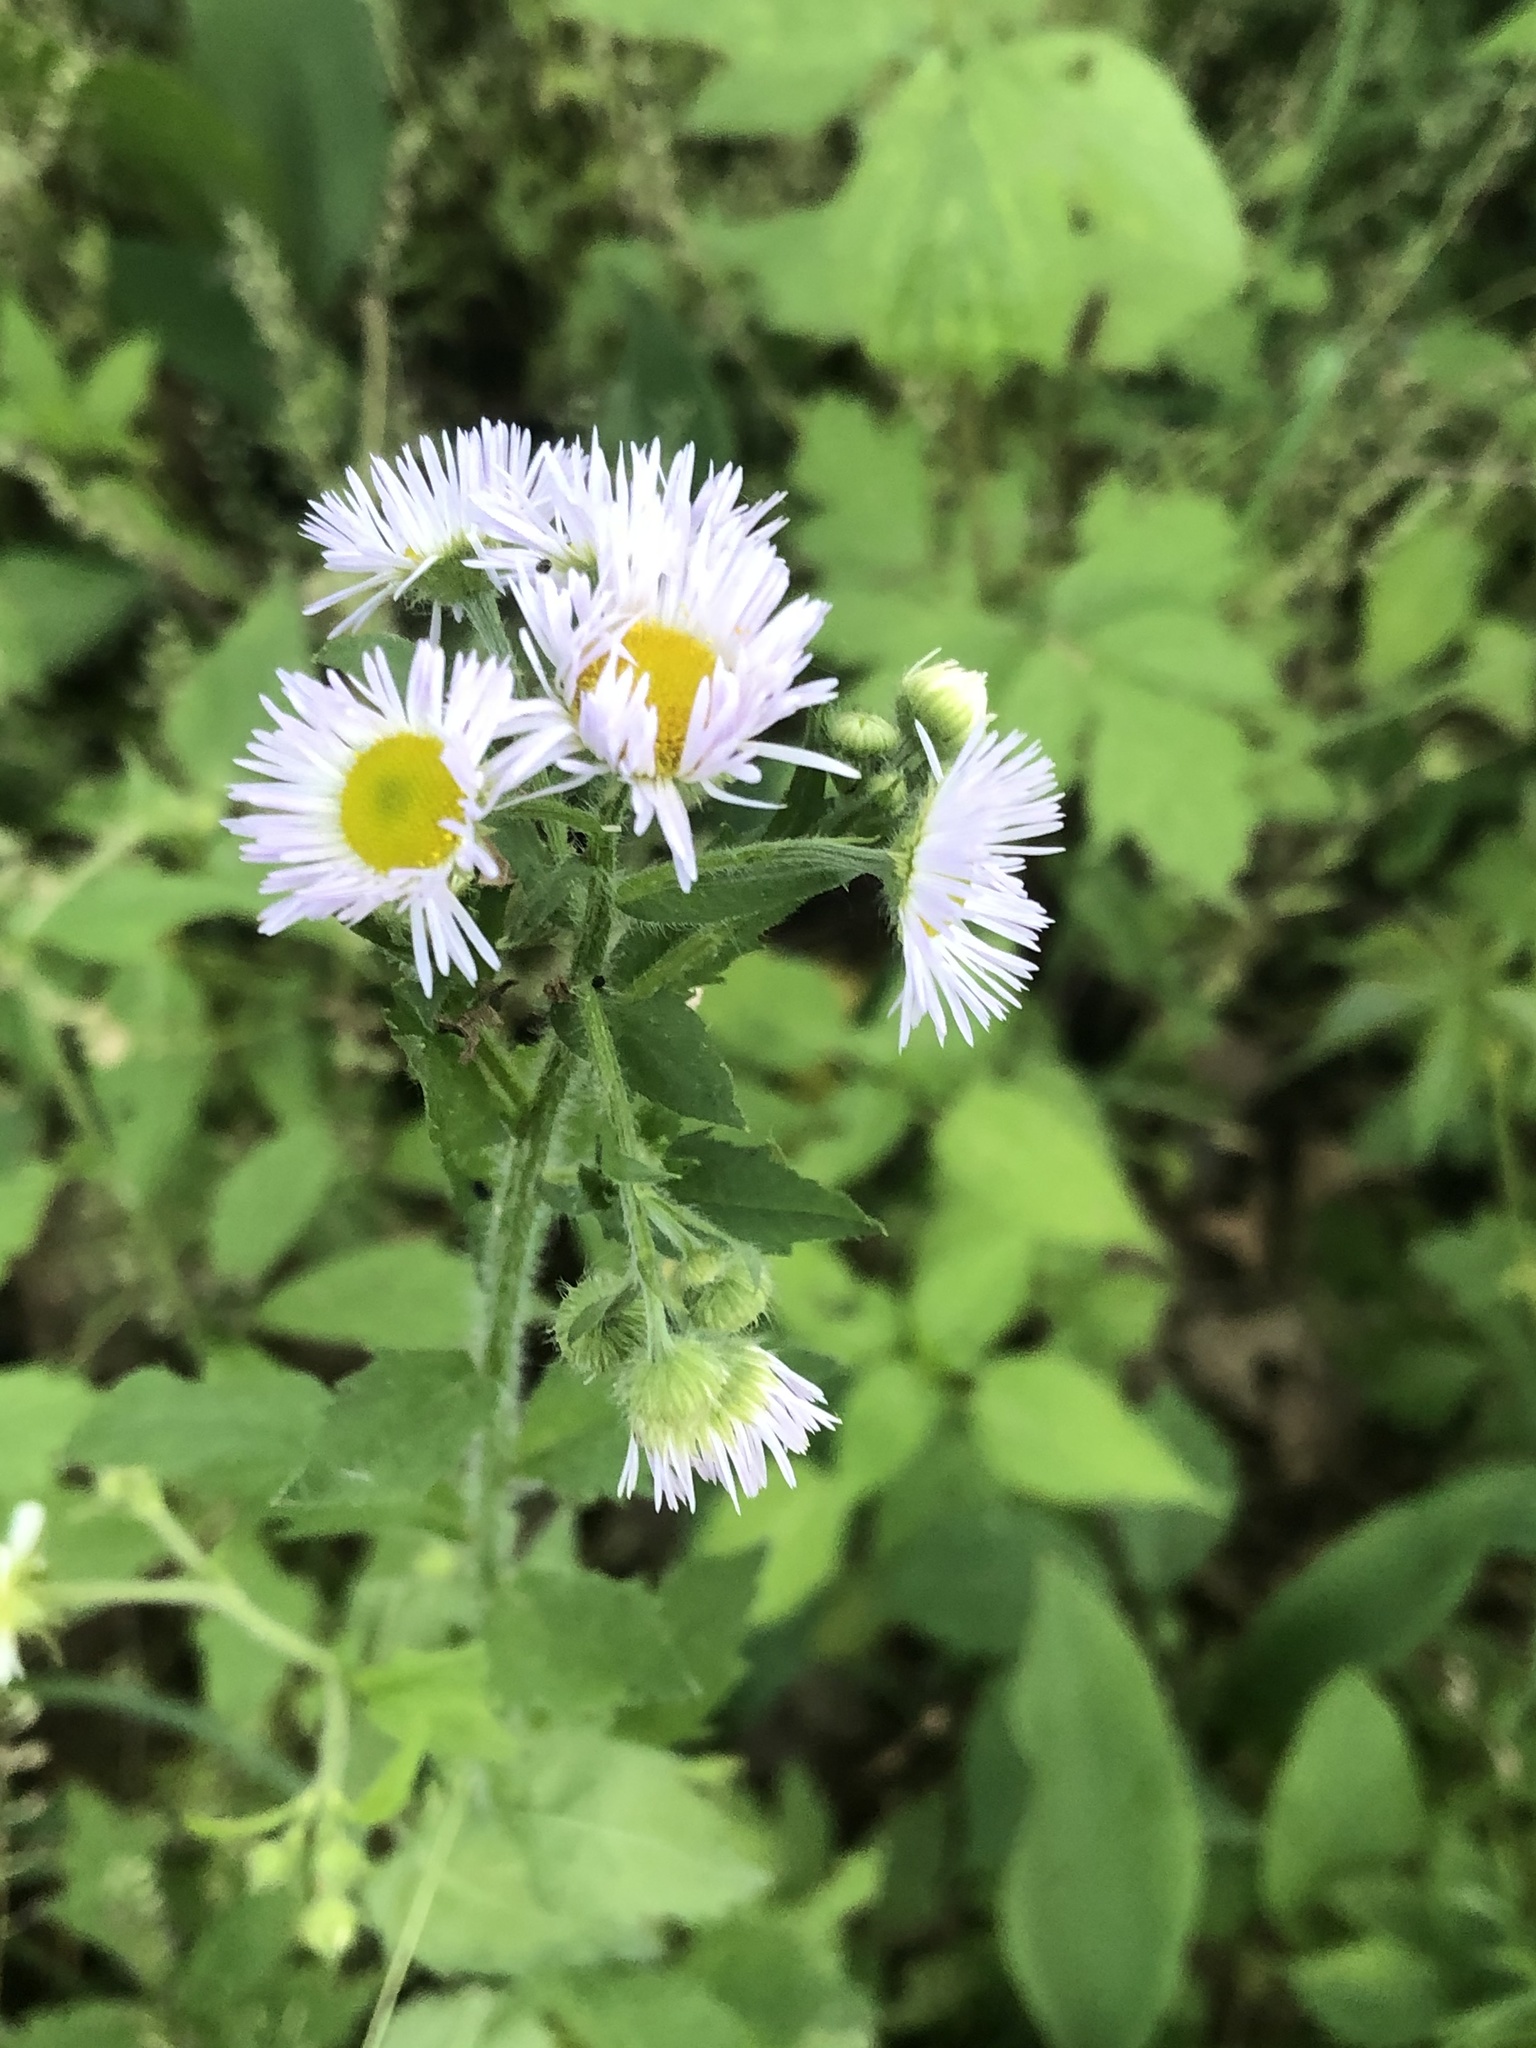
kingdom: Plantae
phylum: Tracheophyta
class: Magnoliopsida
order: Asterales
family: Asteraceae
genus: Erigeron
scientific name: Erigeron annuus
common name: Tall fleabane
